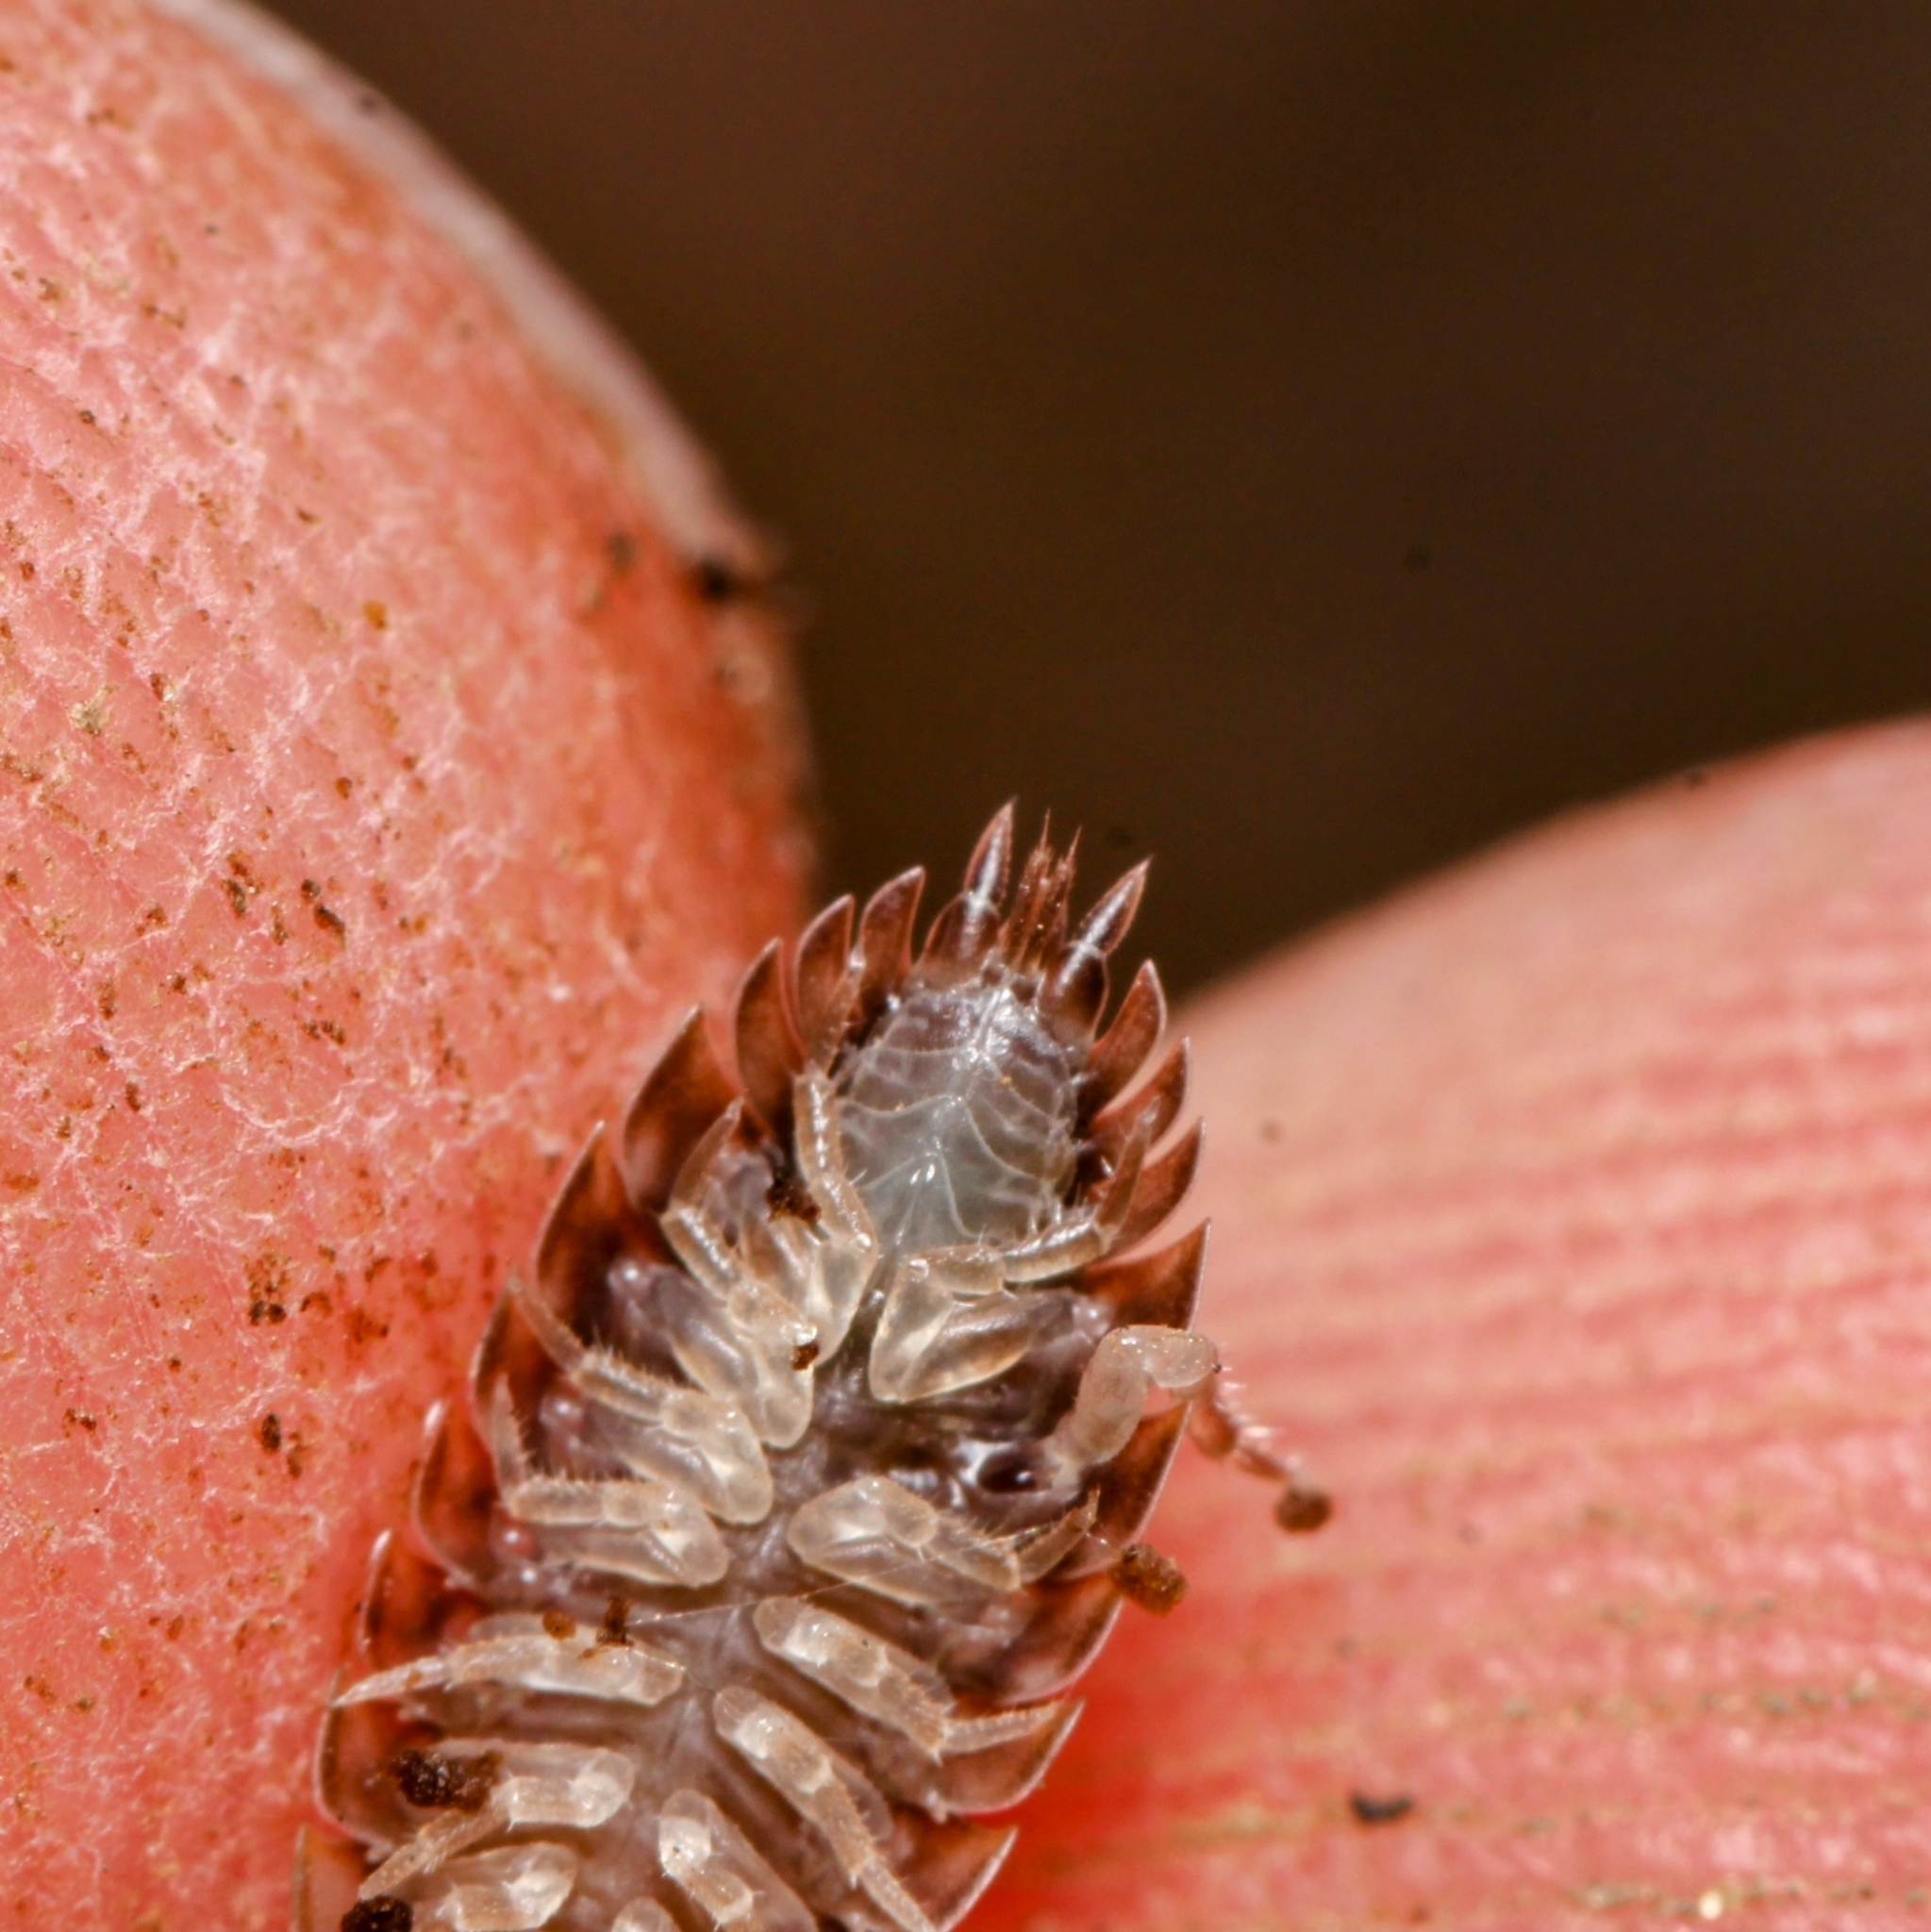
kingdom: Animalia
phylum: Arthropoda
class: Malacostraca
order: Isopoda
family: Oniscidae
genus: Oniscus
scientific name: Oniscus asellus
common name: Common shiny woodlouse
